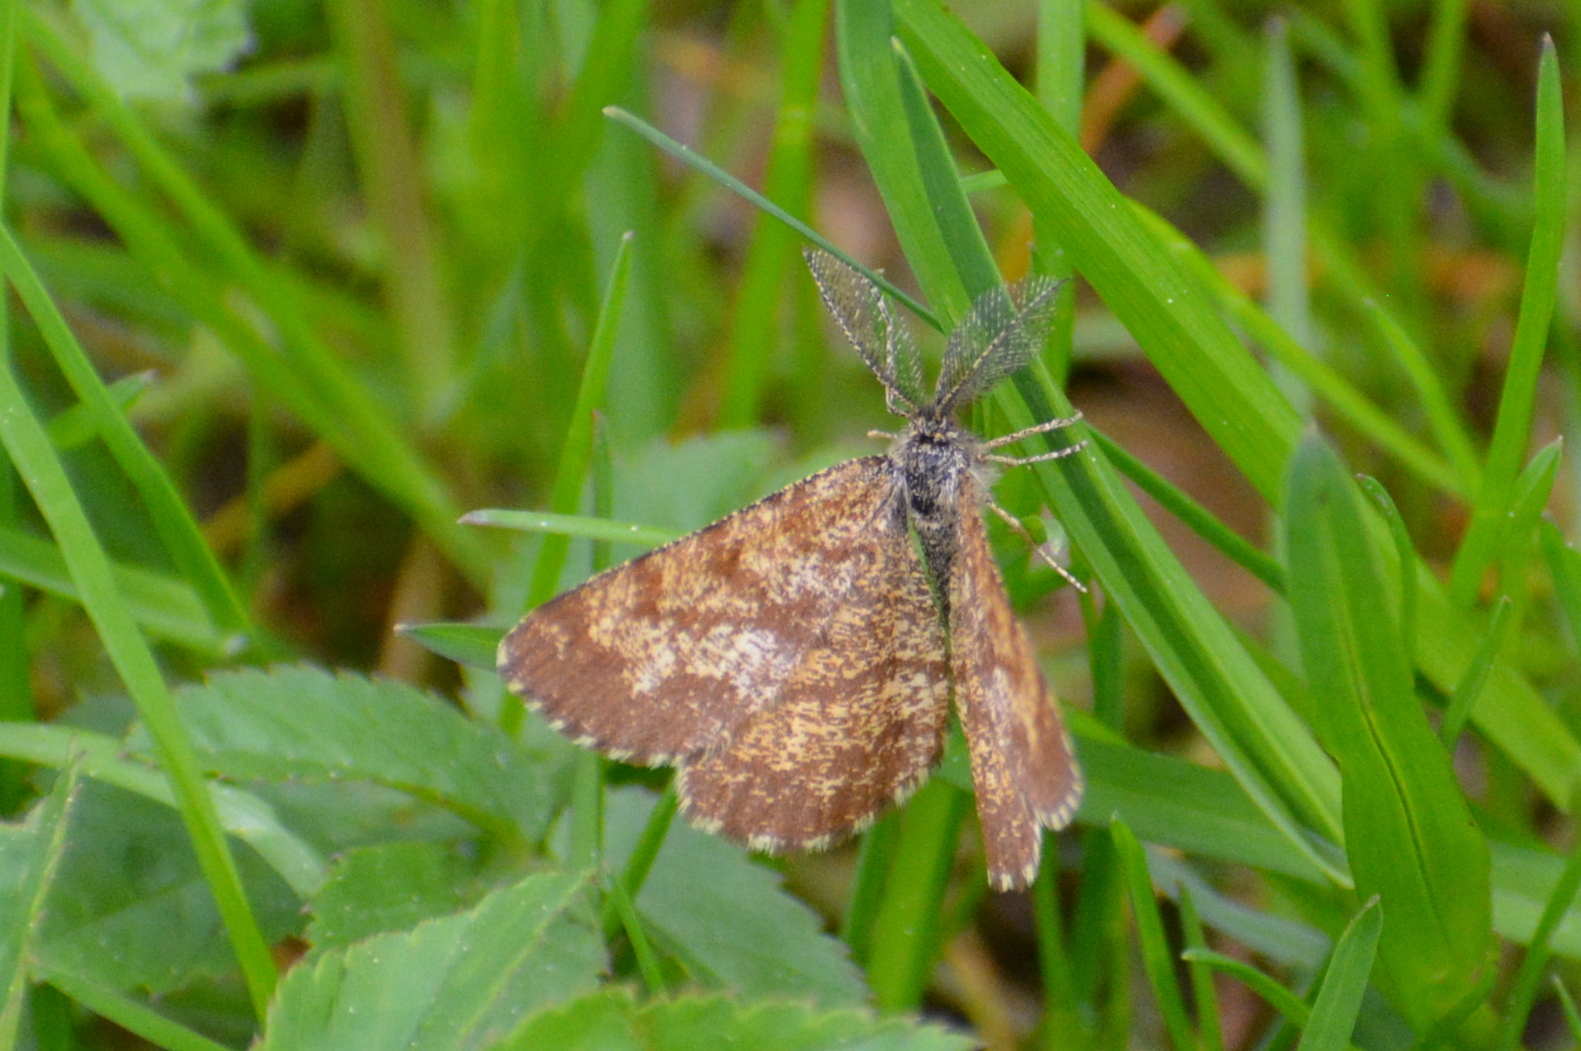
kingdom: Animalia
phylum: Arthropoda
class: Insecta
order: Lepidoptera
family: Geometridae
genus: Ematurga
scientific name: Ematurga atomaria
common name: Common heath
